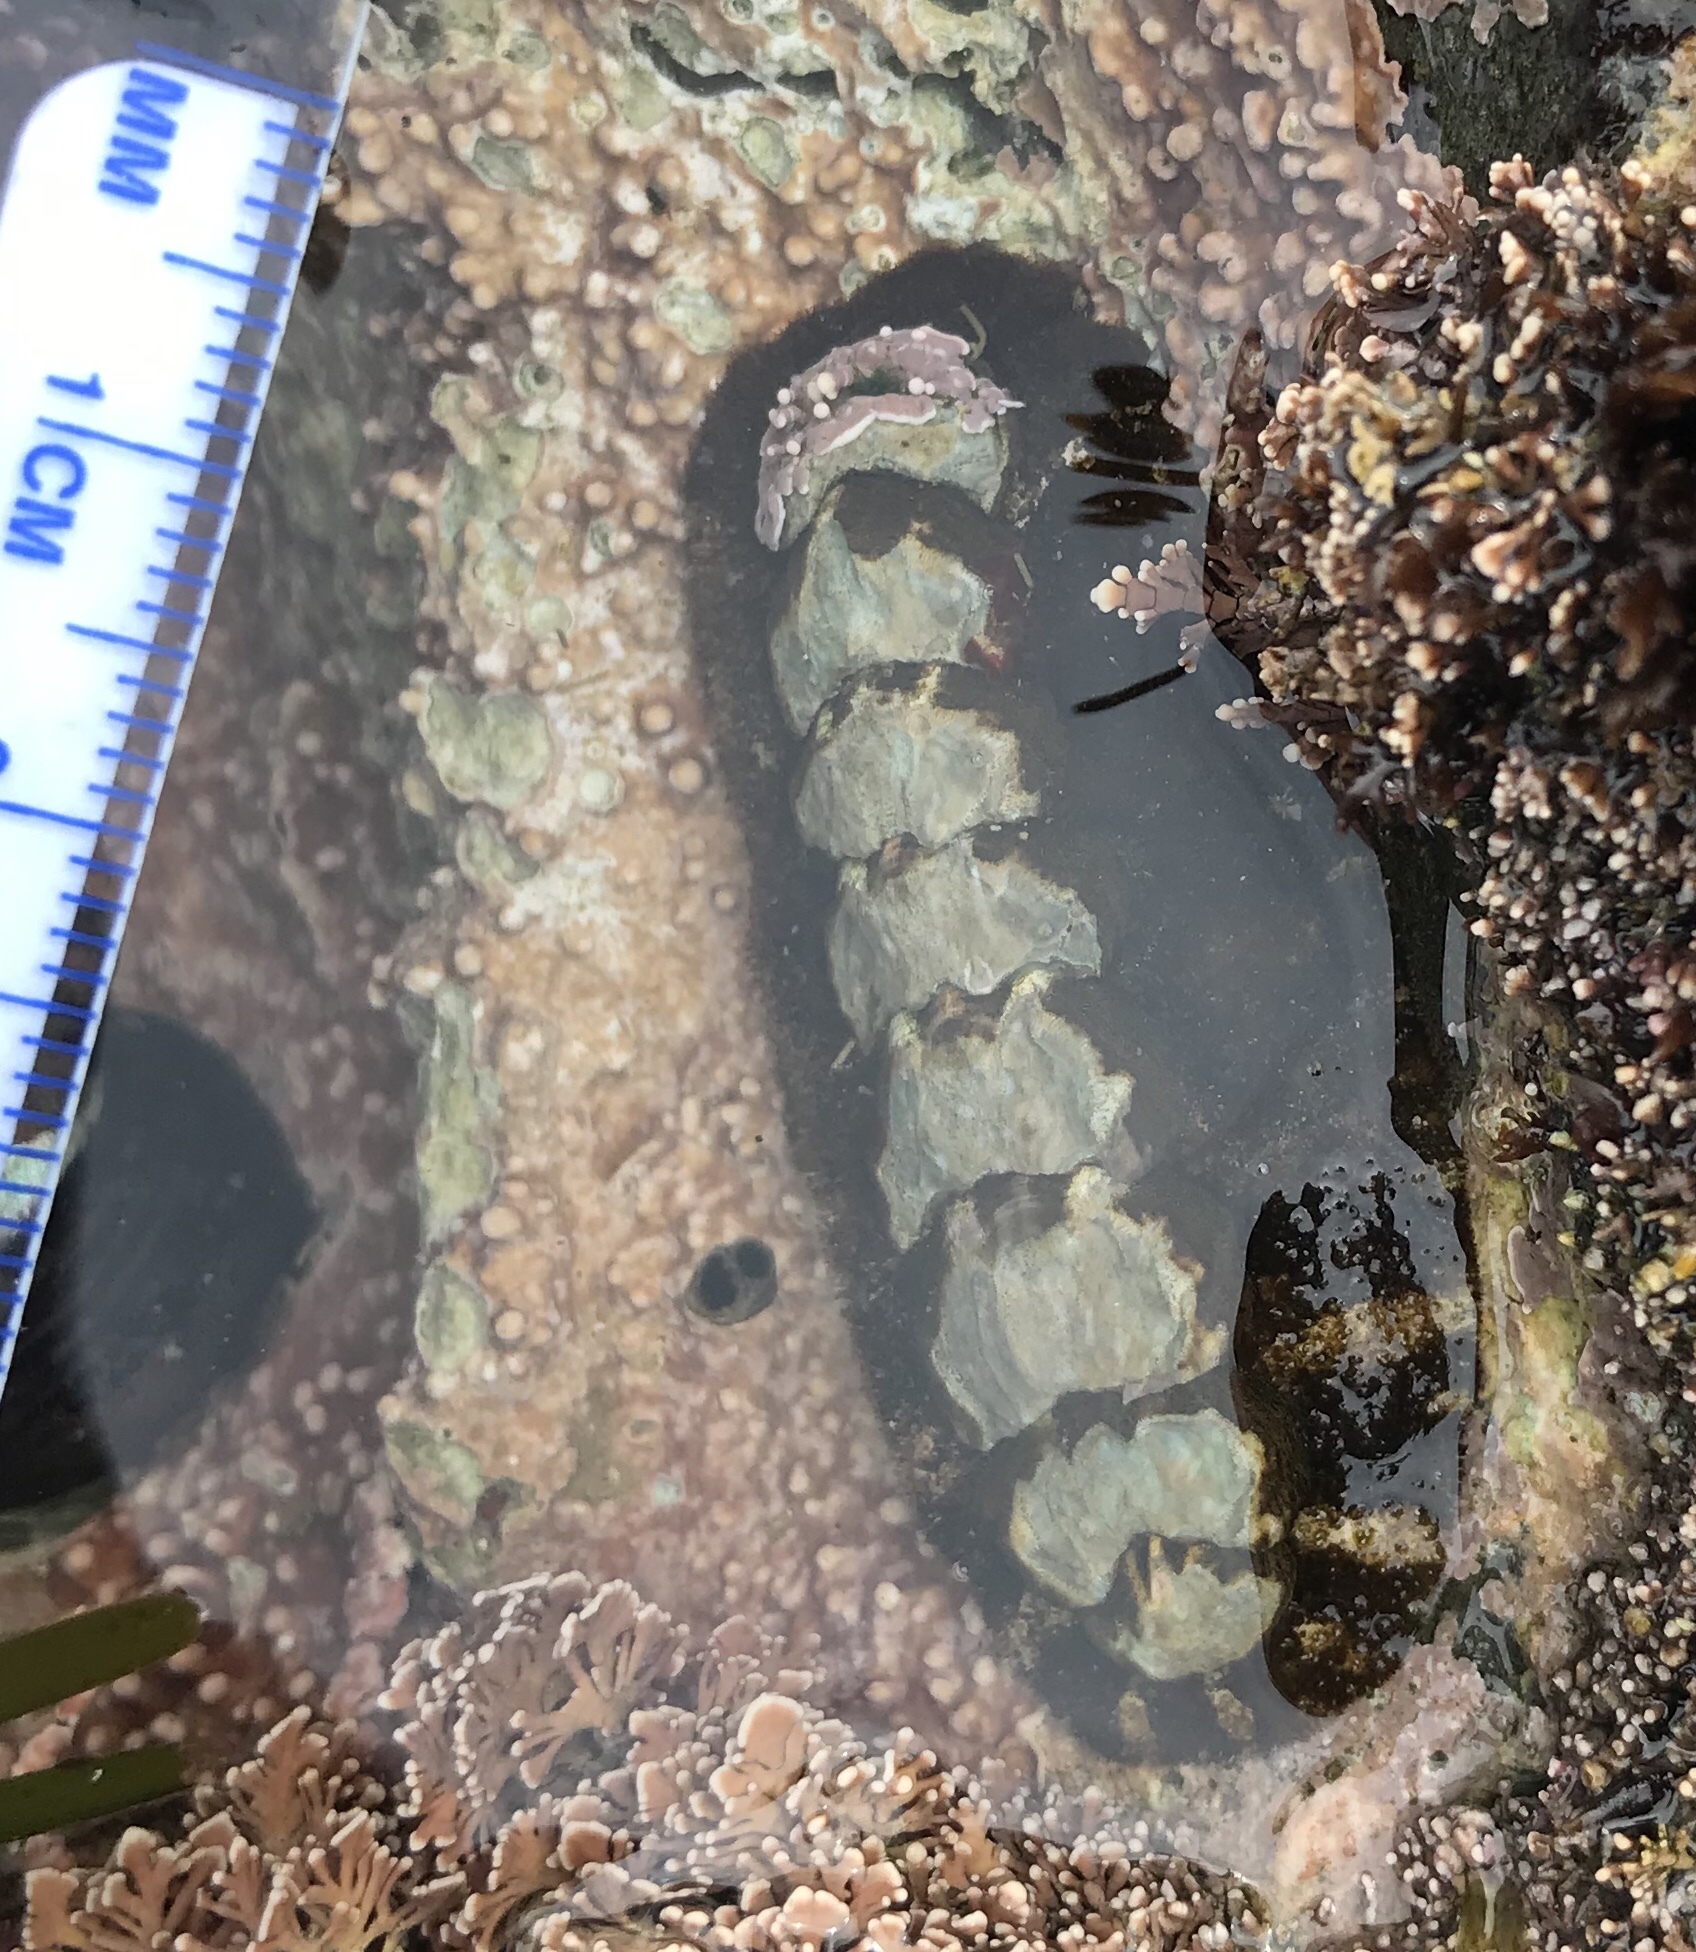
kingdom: Animalia
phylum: Mollusca
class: Polyplacophora
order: Chitonida
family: Tonicellidae
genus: Nuttallina
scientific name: Nuttallina californica
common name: California nuttall chiton
